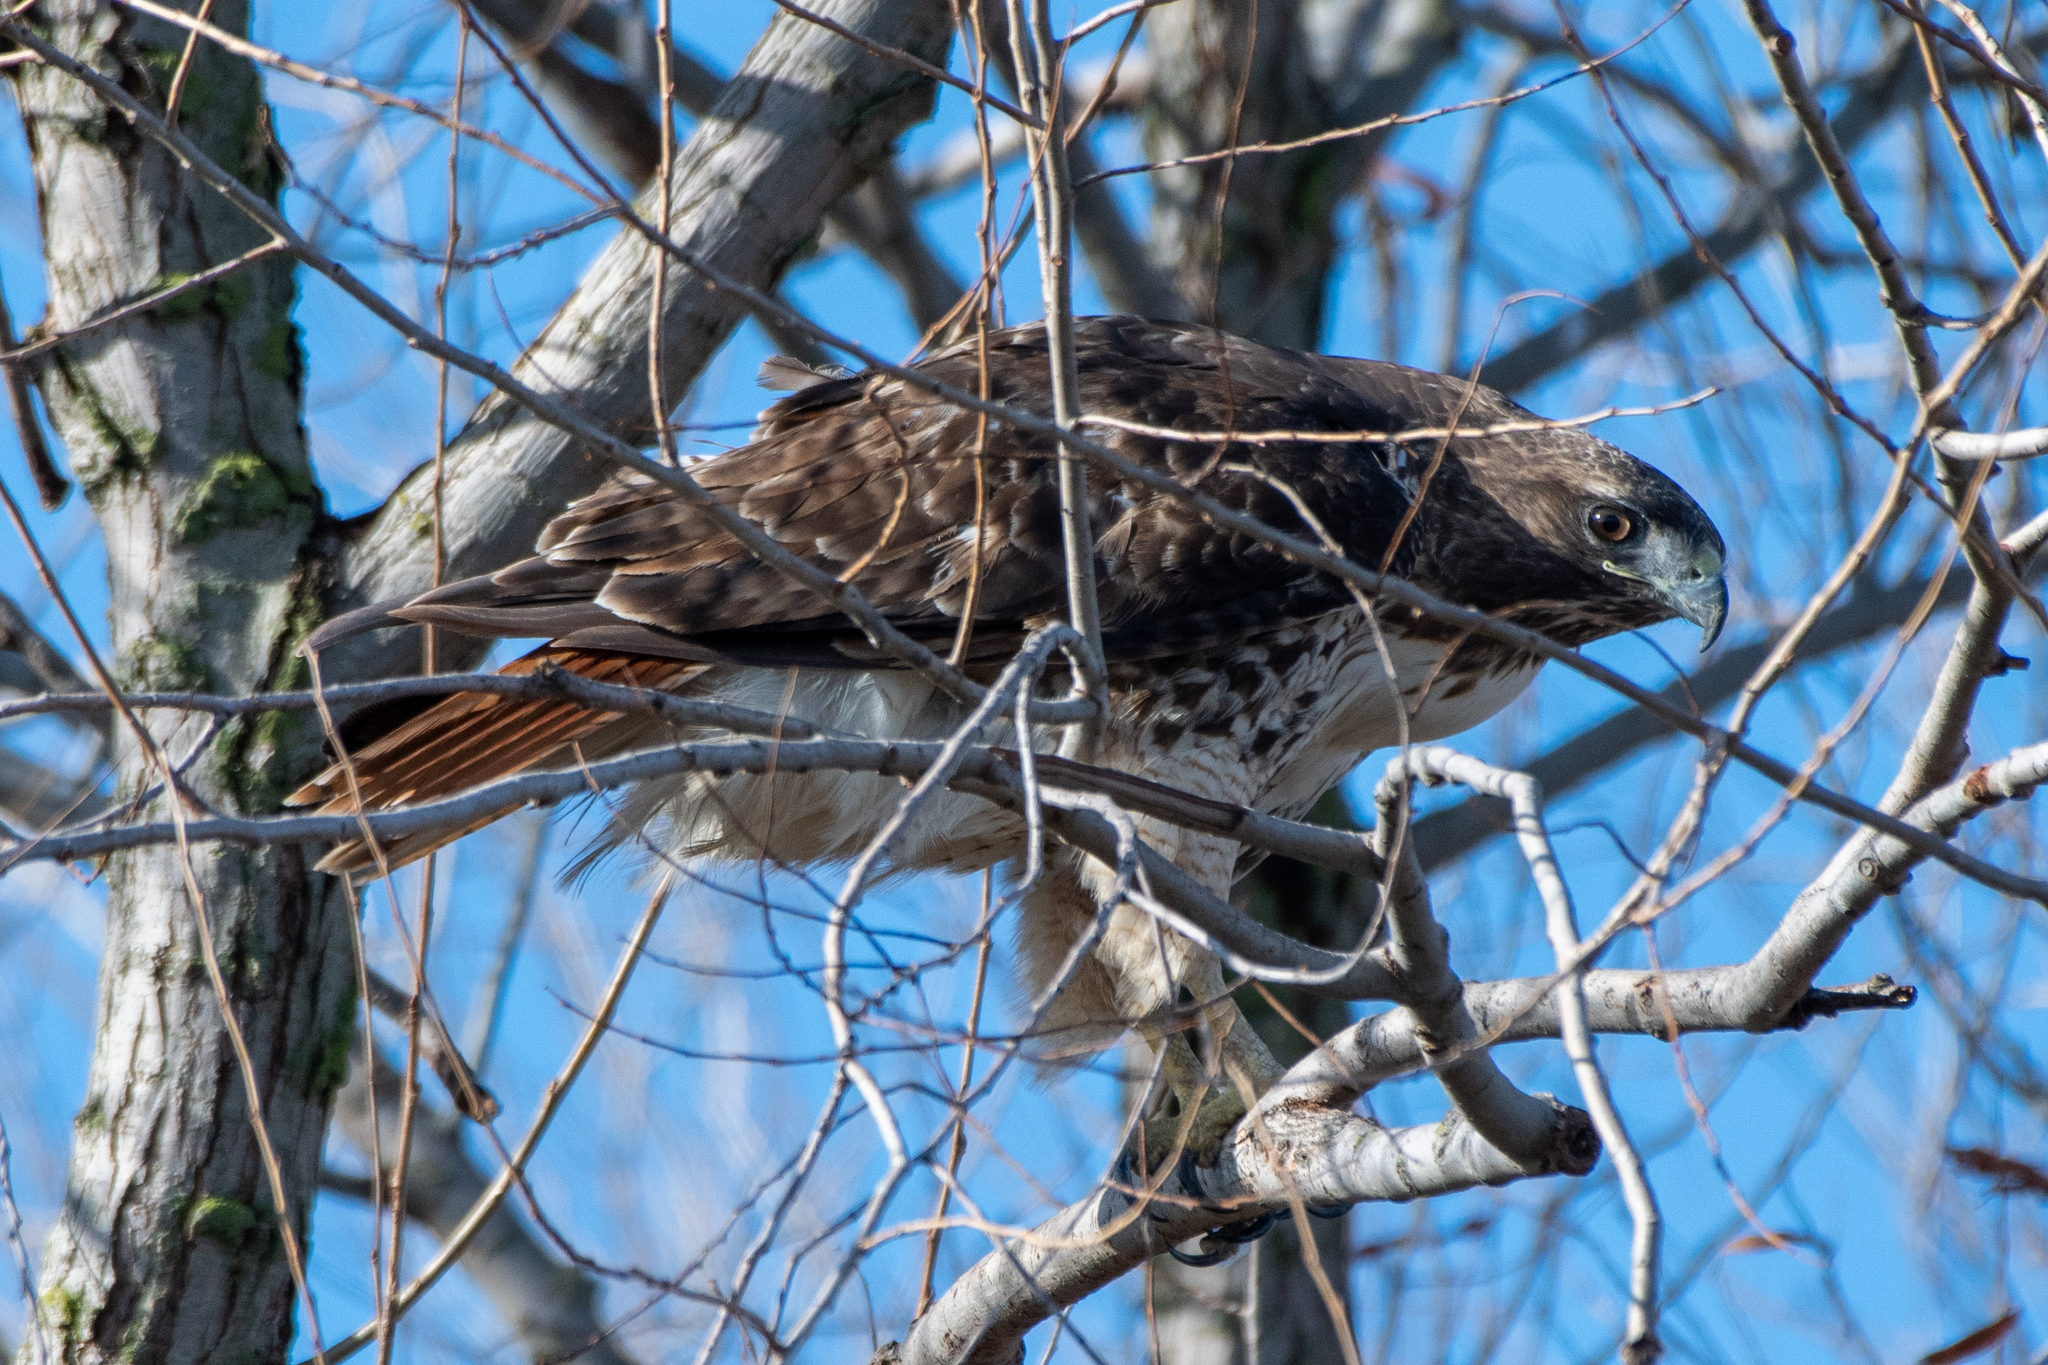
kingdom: Animalia
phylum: Chordata
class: Aves
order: Accipitriformes
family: Accipitridae
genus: Buteo
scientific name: Buteo jamaicensis
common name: Red-tailed hawk
